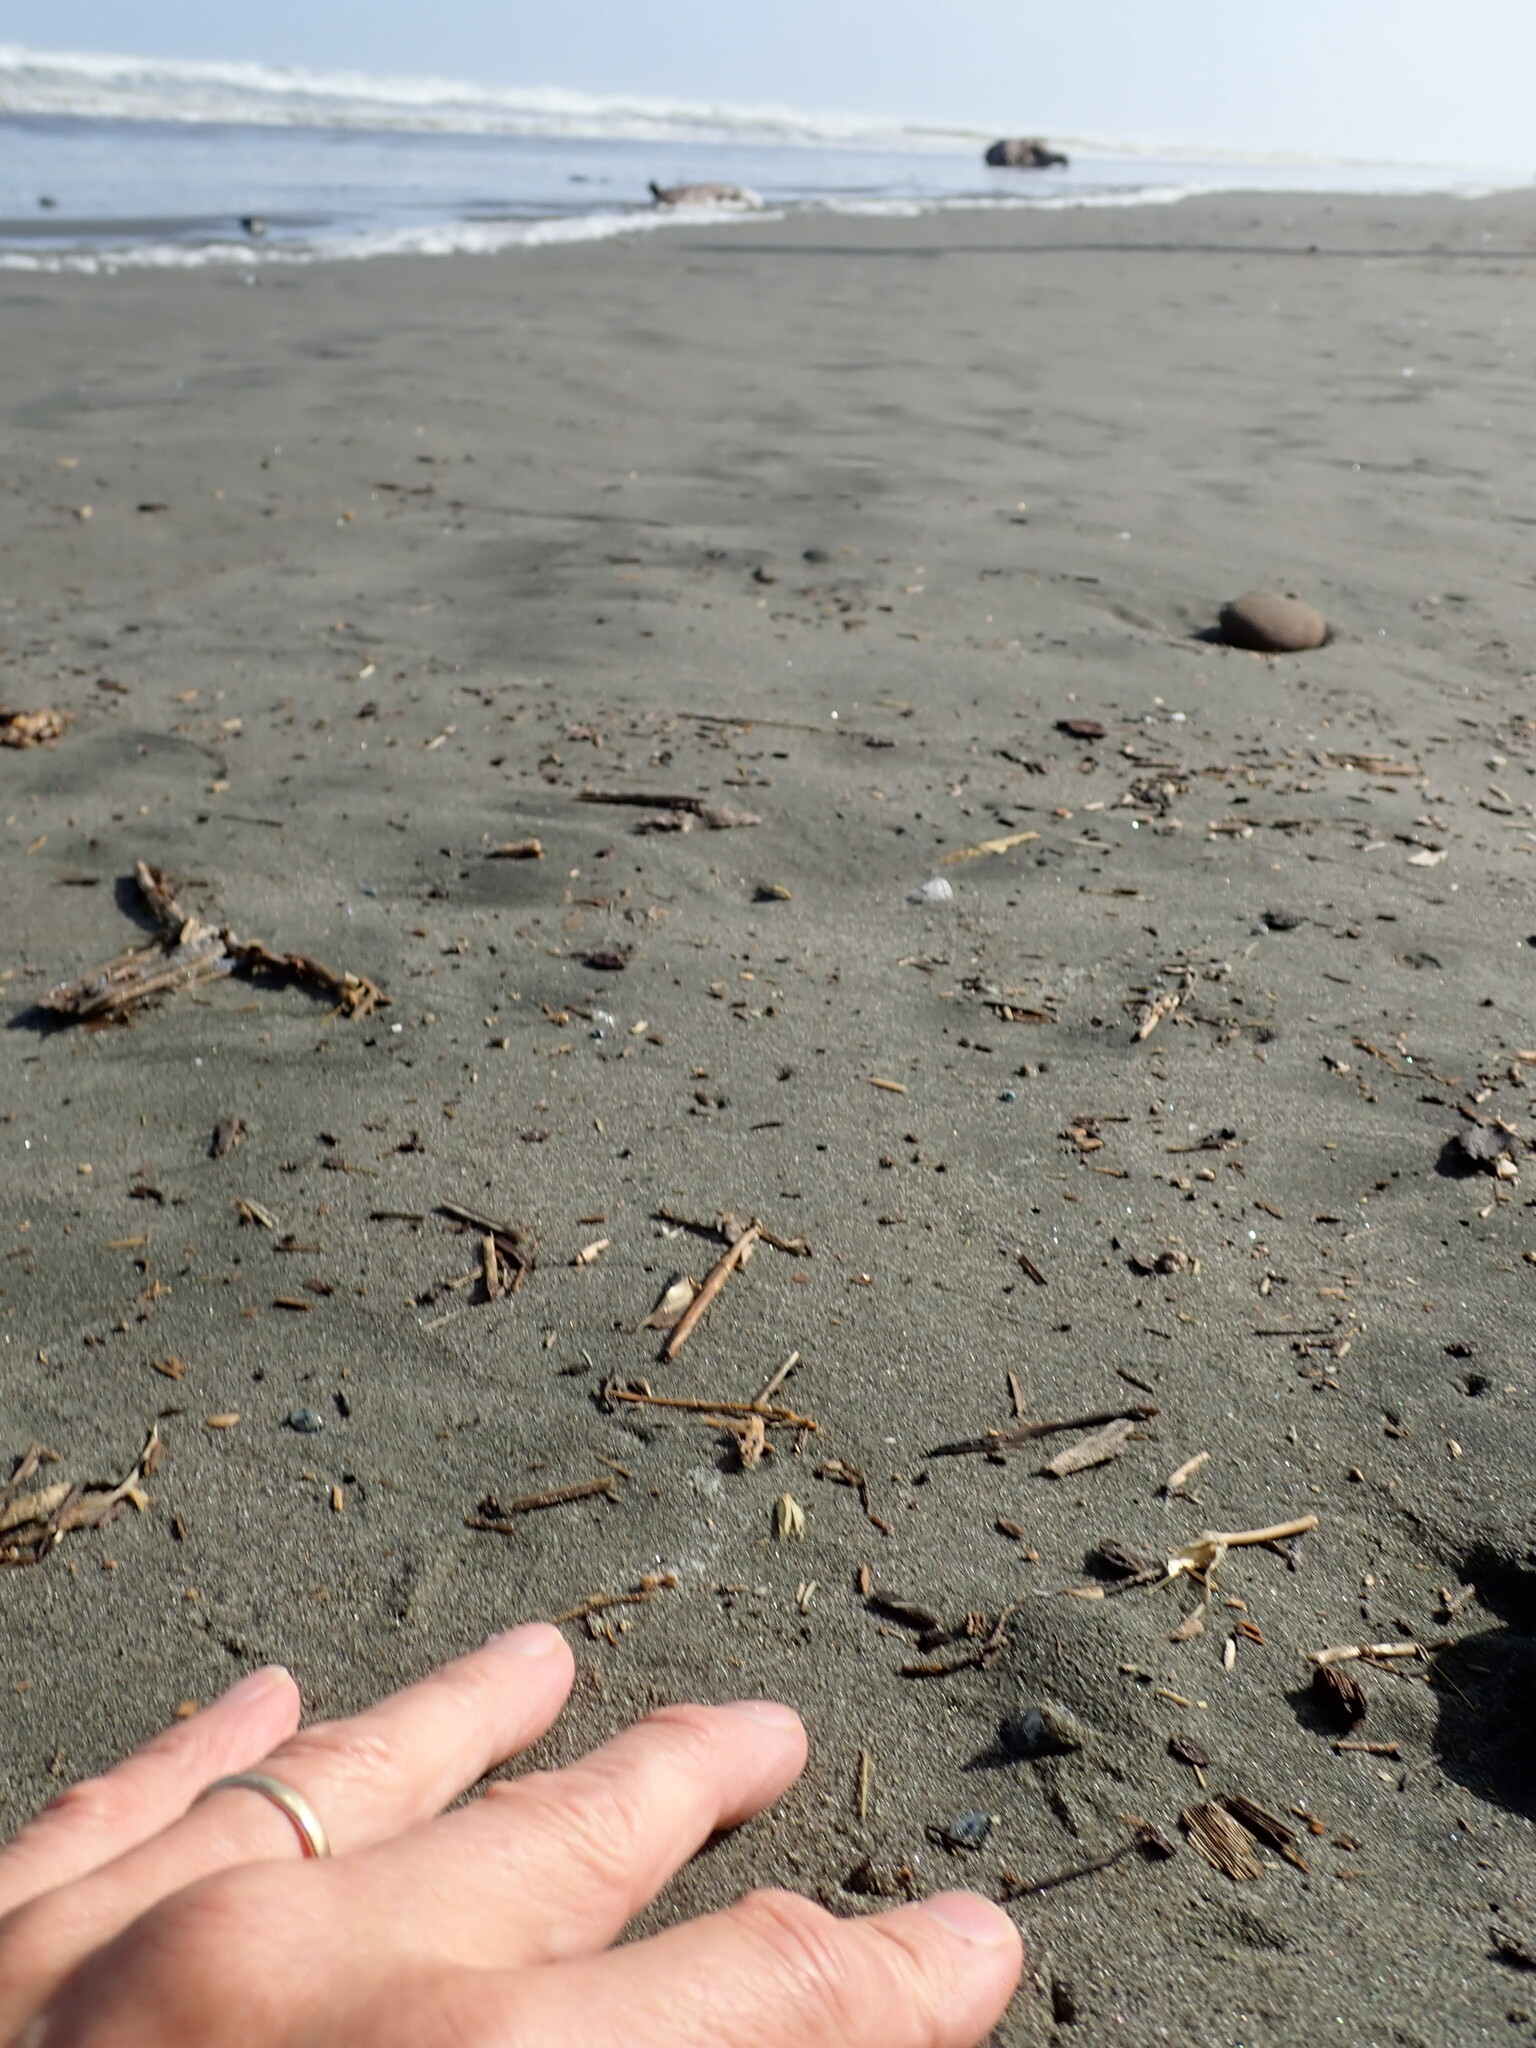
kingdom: Animalia
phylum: Cnidaria
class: Hydrozoa
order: Anthoathecata
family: Porpitidae
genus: Velella
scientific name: Velella velella
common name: By-the-wind-sailor
